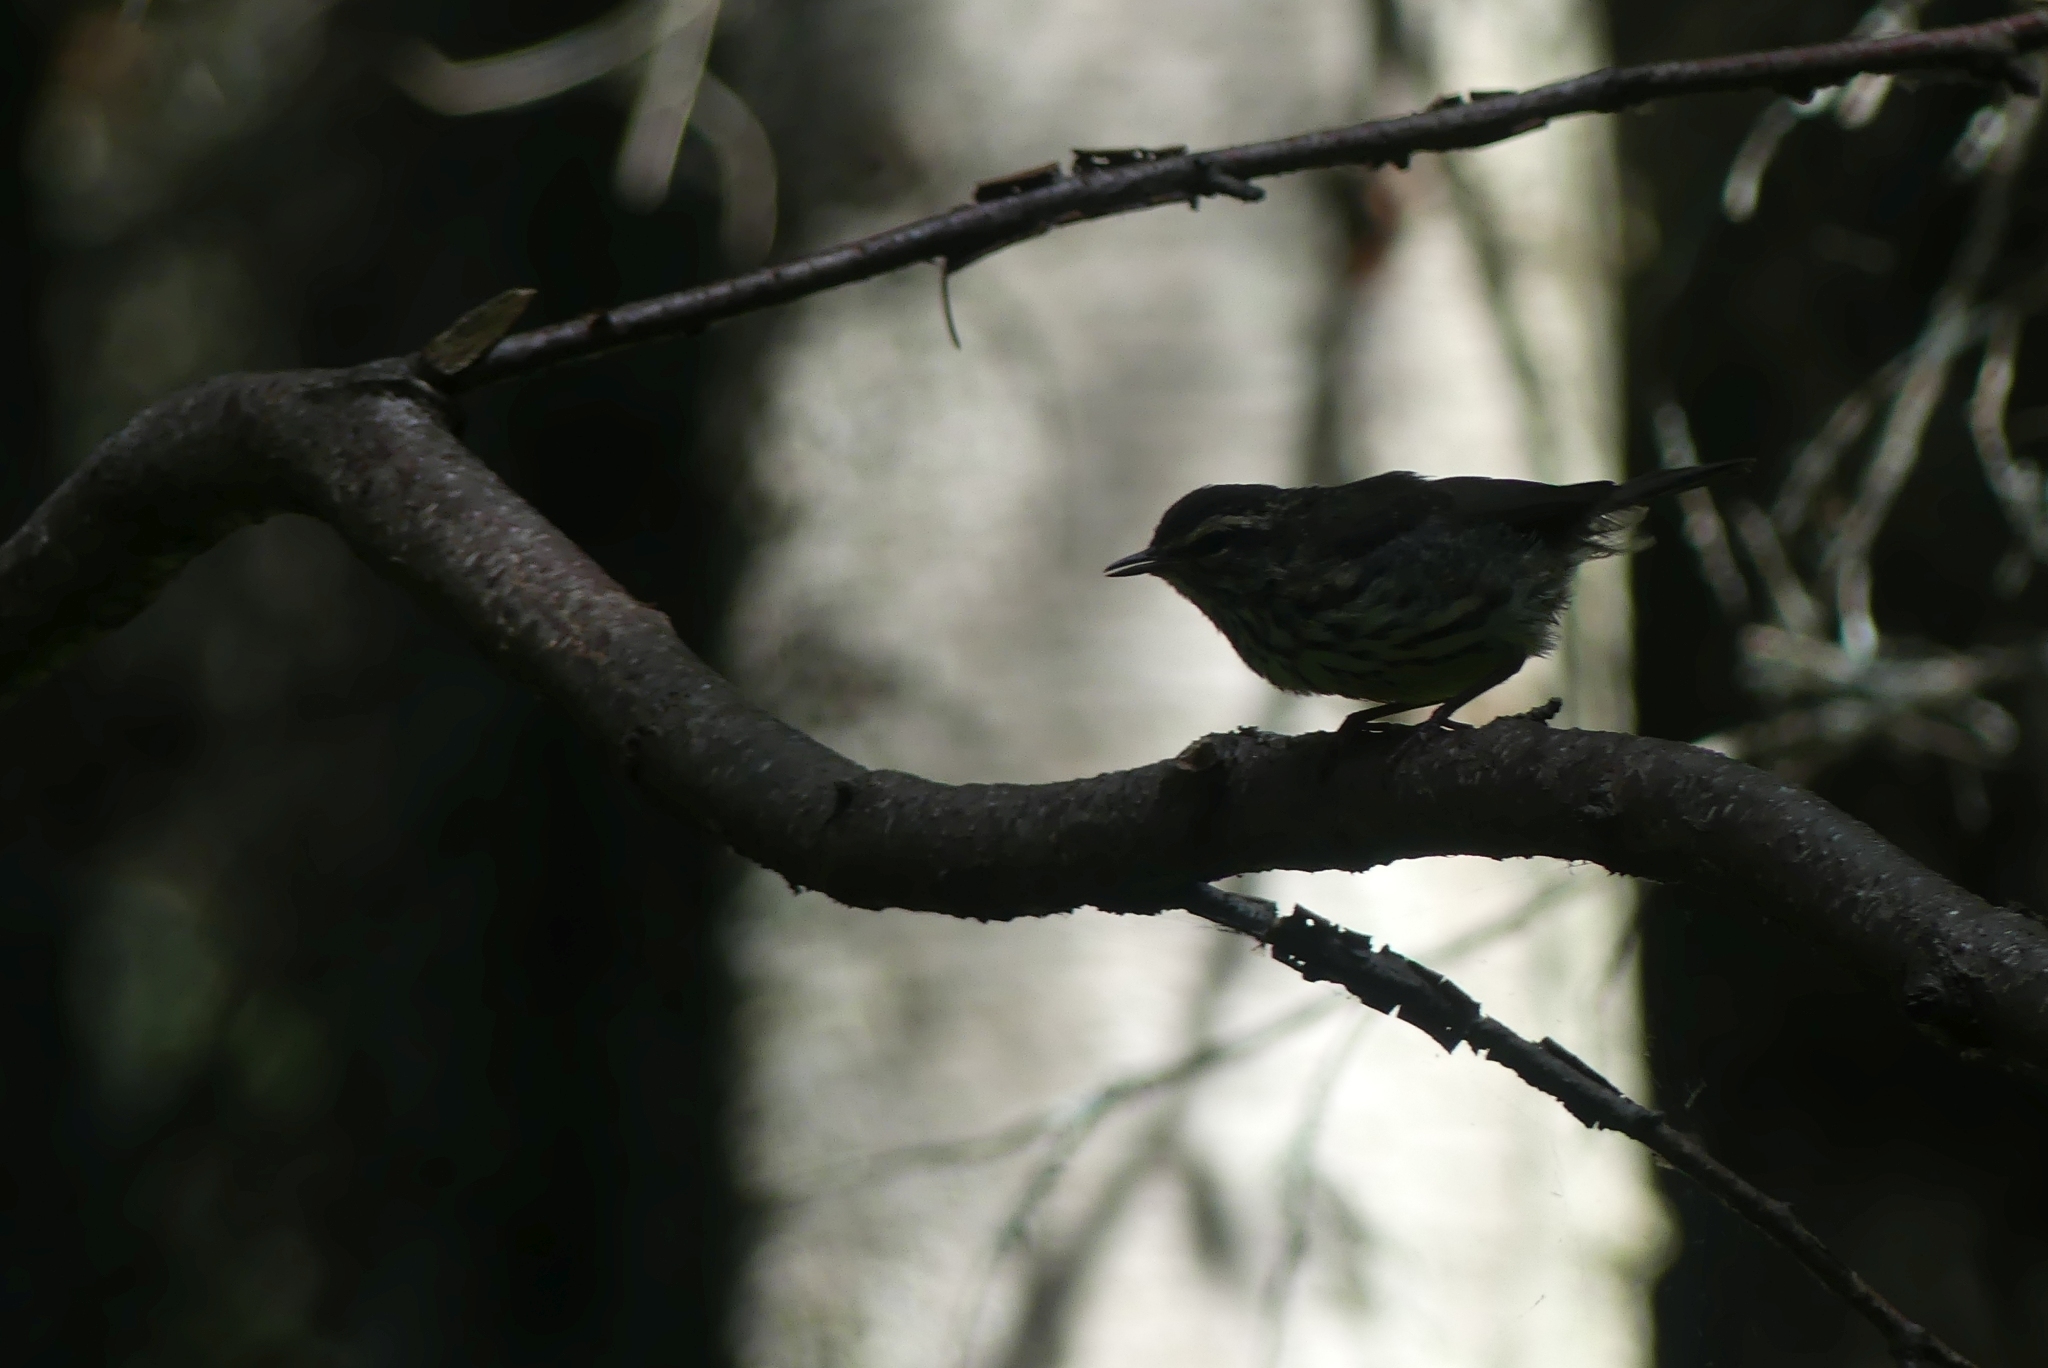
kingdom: Animalia
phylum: Chordata
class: Aves
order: Passeriformes
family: Parulidae
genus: Parkesia
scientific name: Parkesia noveboracensis
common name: Northern waterthrush
